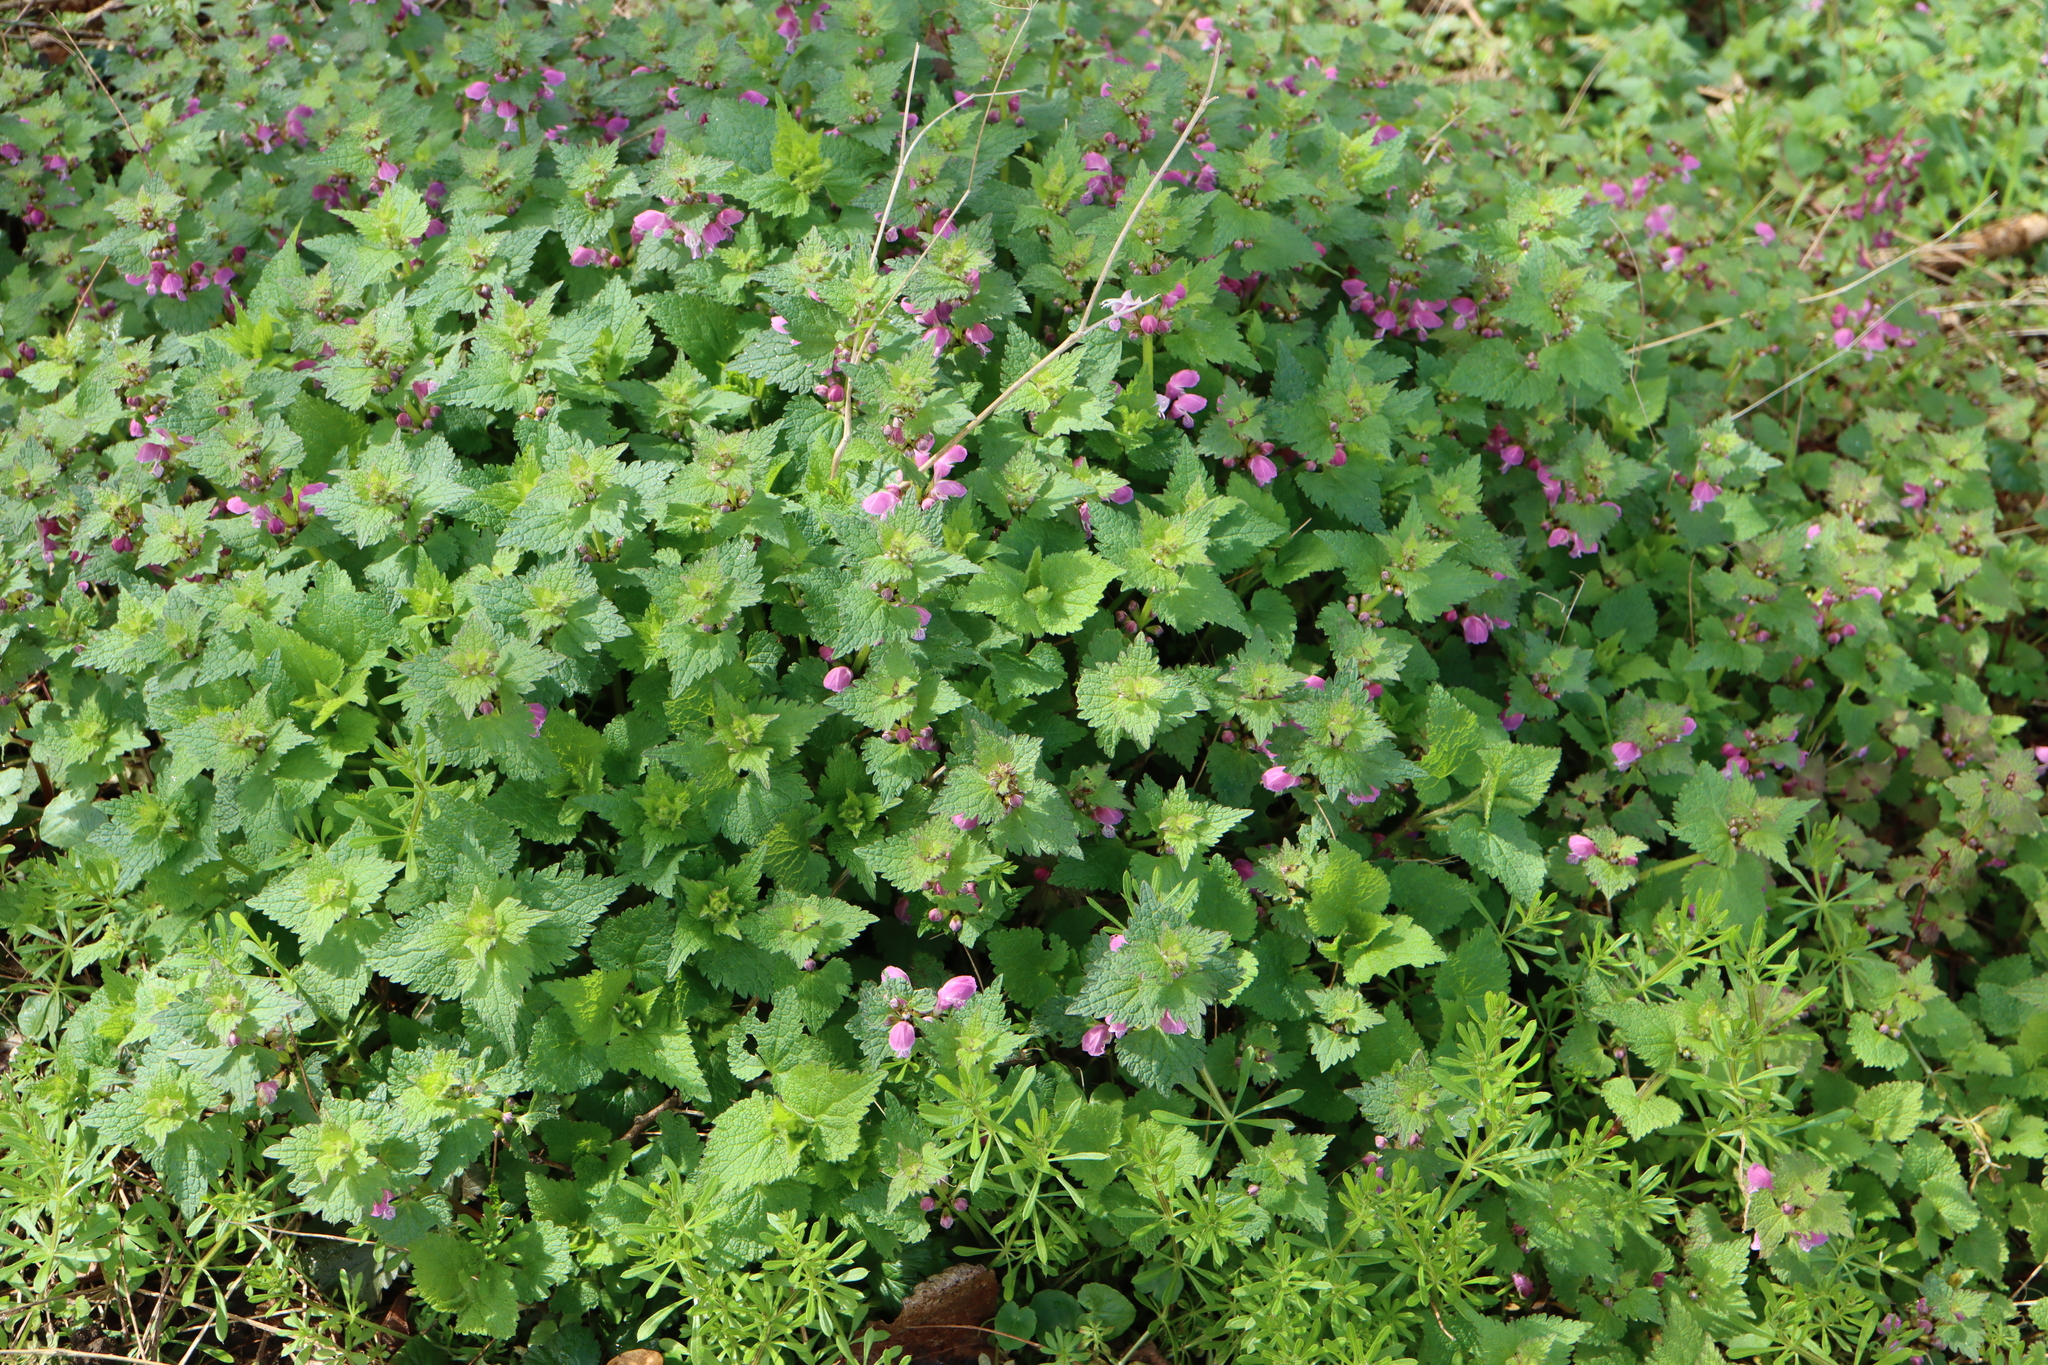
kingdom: Plantae
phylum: Tracheophyta
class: Magnoliopsida
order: Lamiales
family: Lamiaceae
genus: Lamium
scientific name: Lamium maculatum
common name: Spotted dead-nettle
